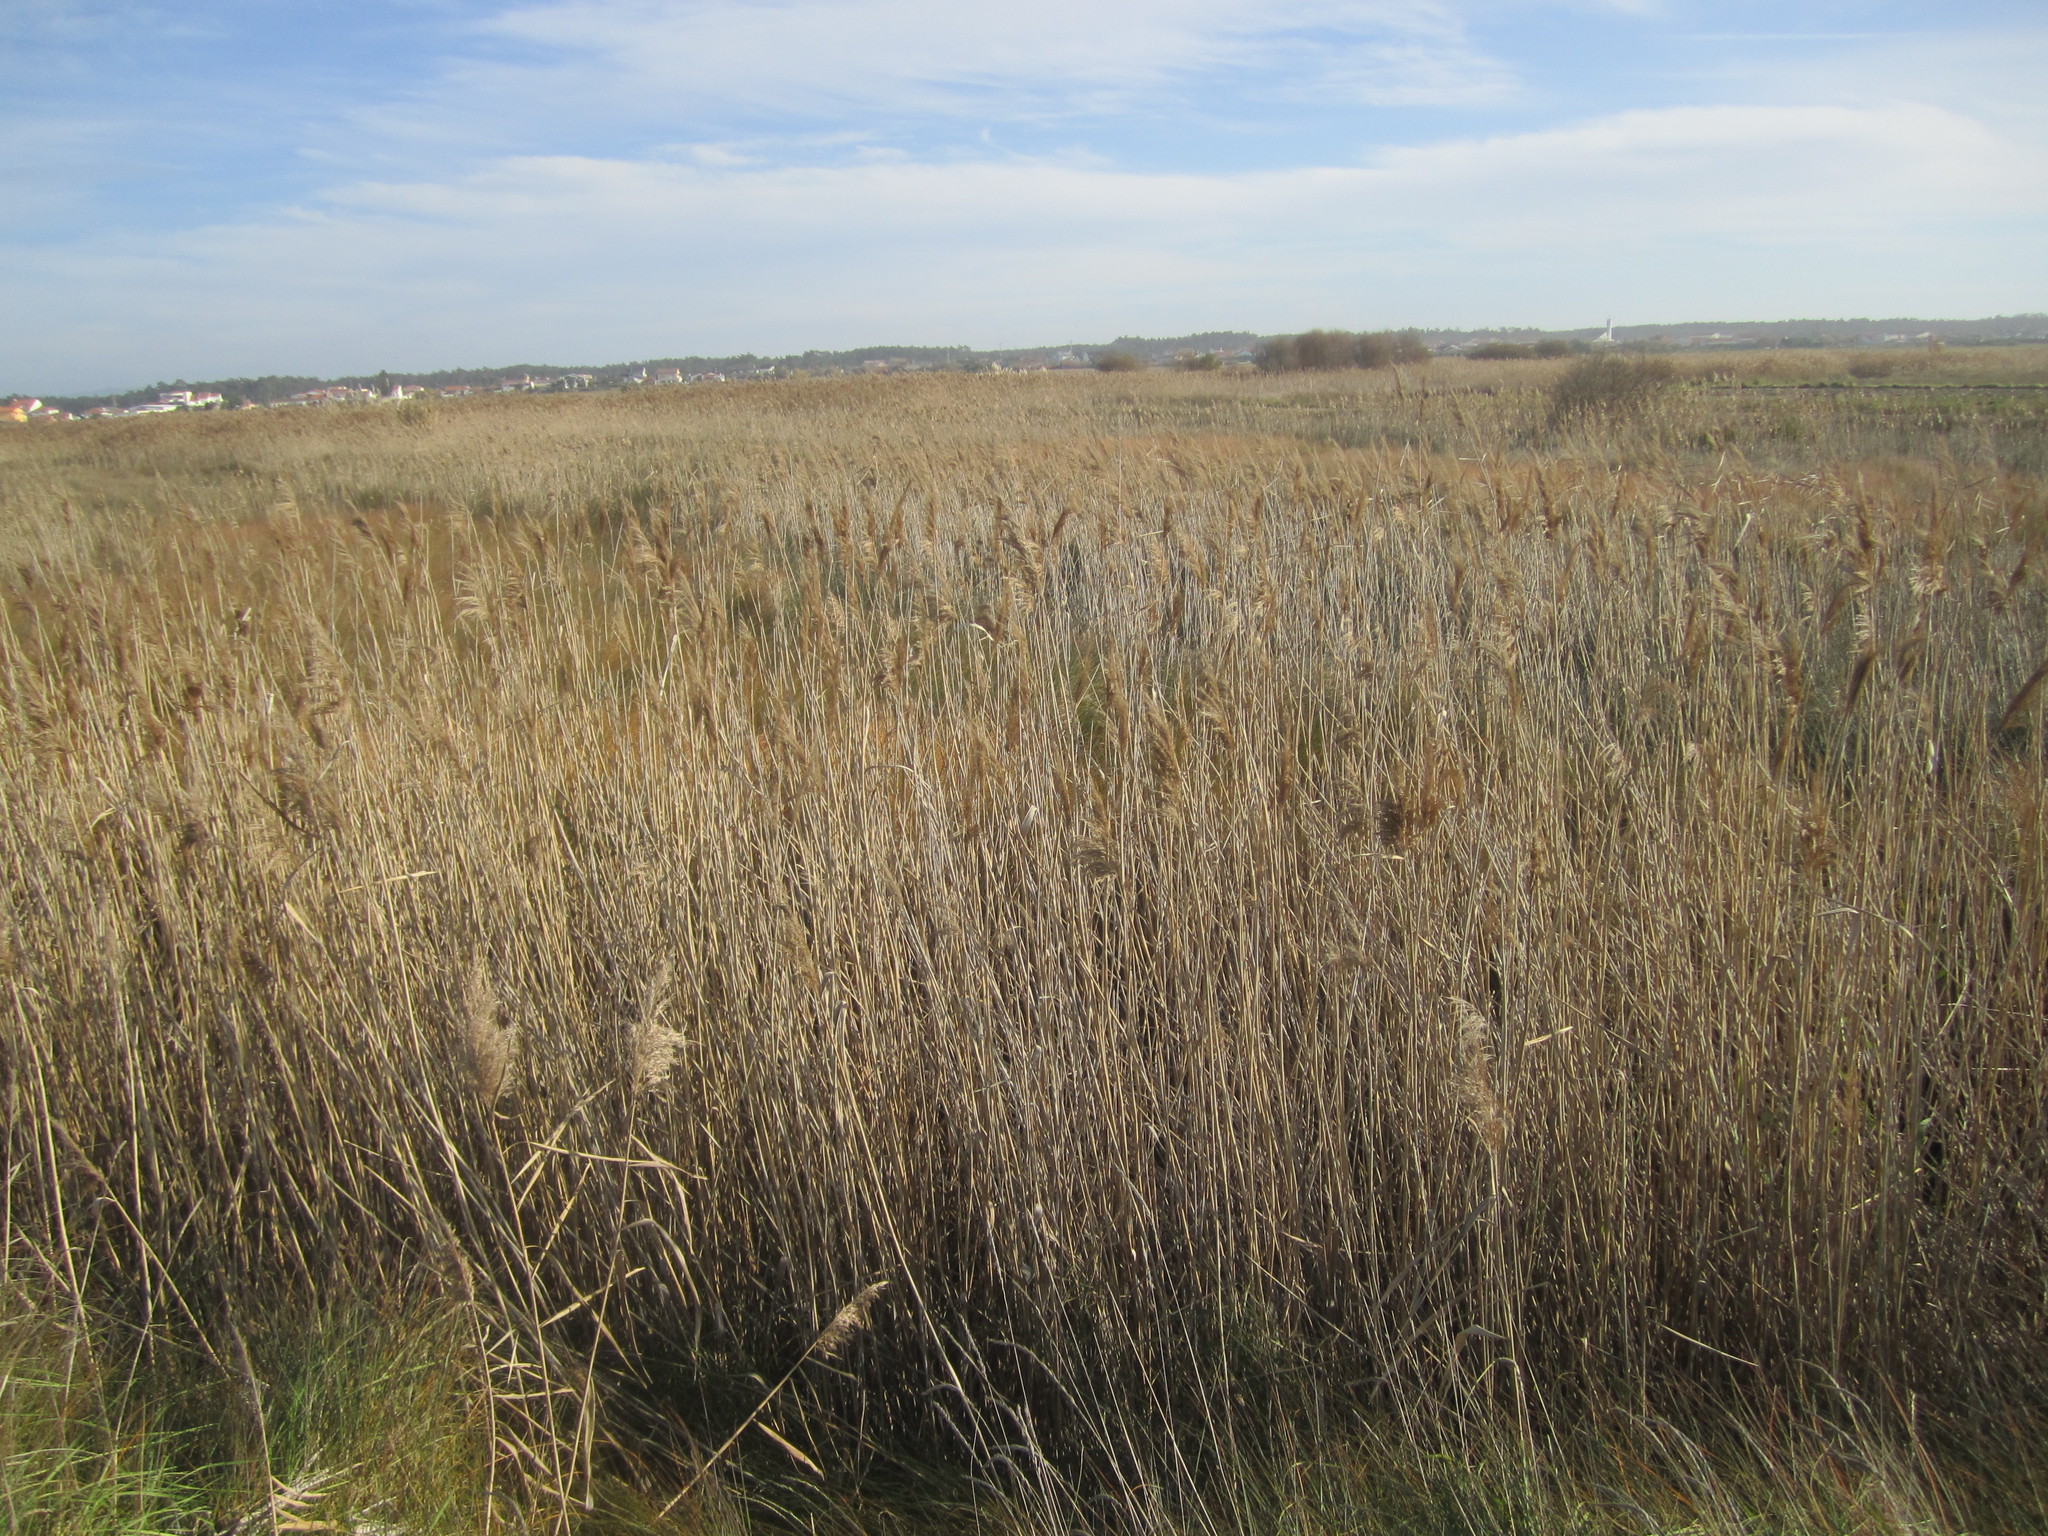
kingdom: Plantae
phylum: Tracheophyta
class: Liliopsida
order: Poales
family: Poaceae
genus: Phragmites
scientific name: Phragmites australis
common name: Common reed
